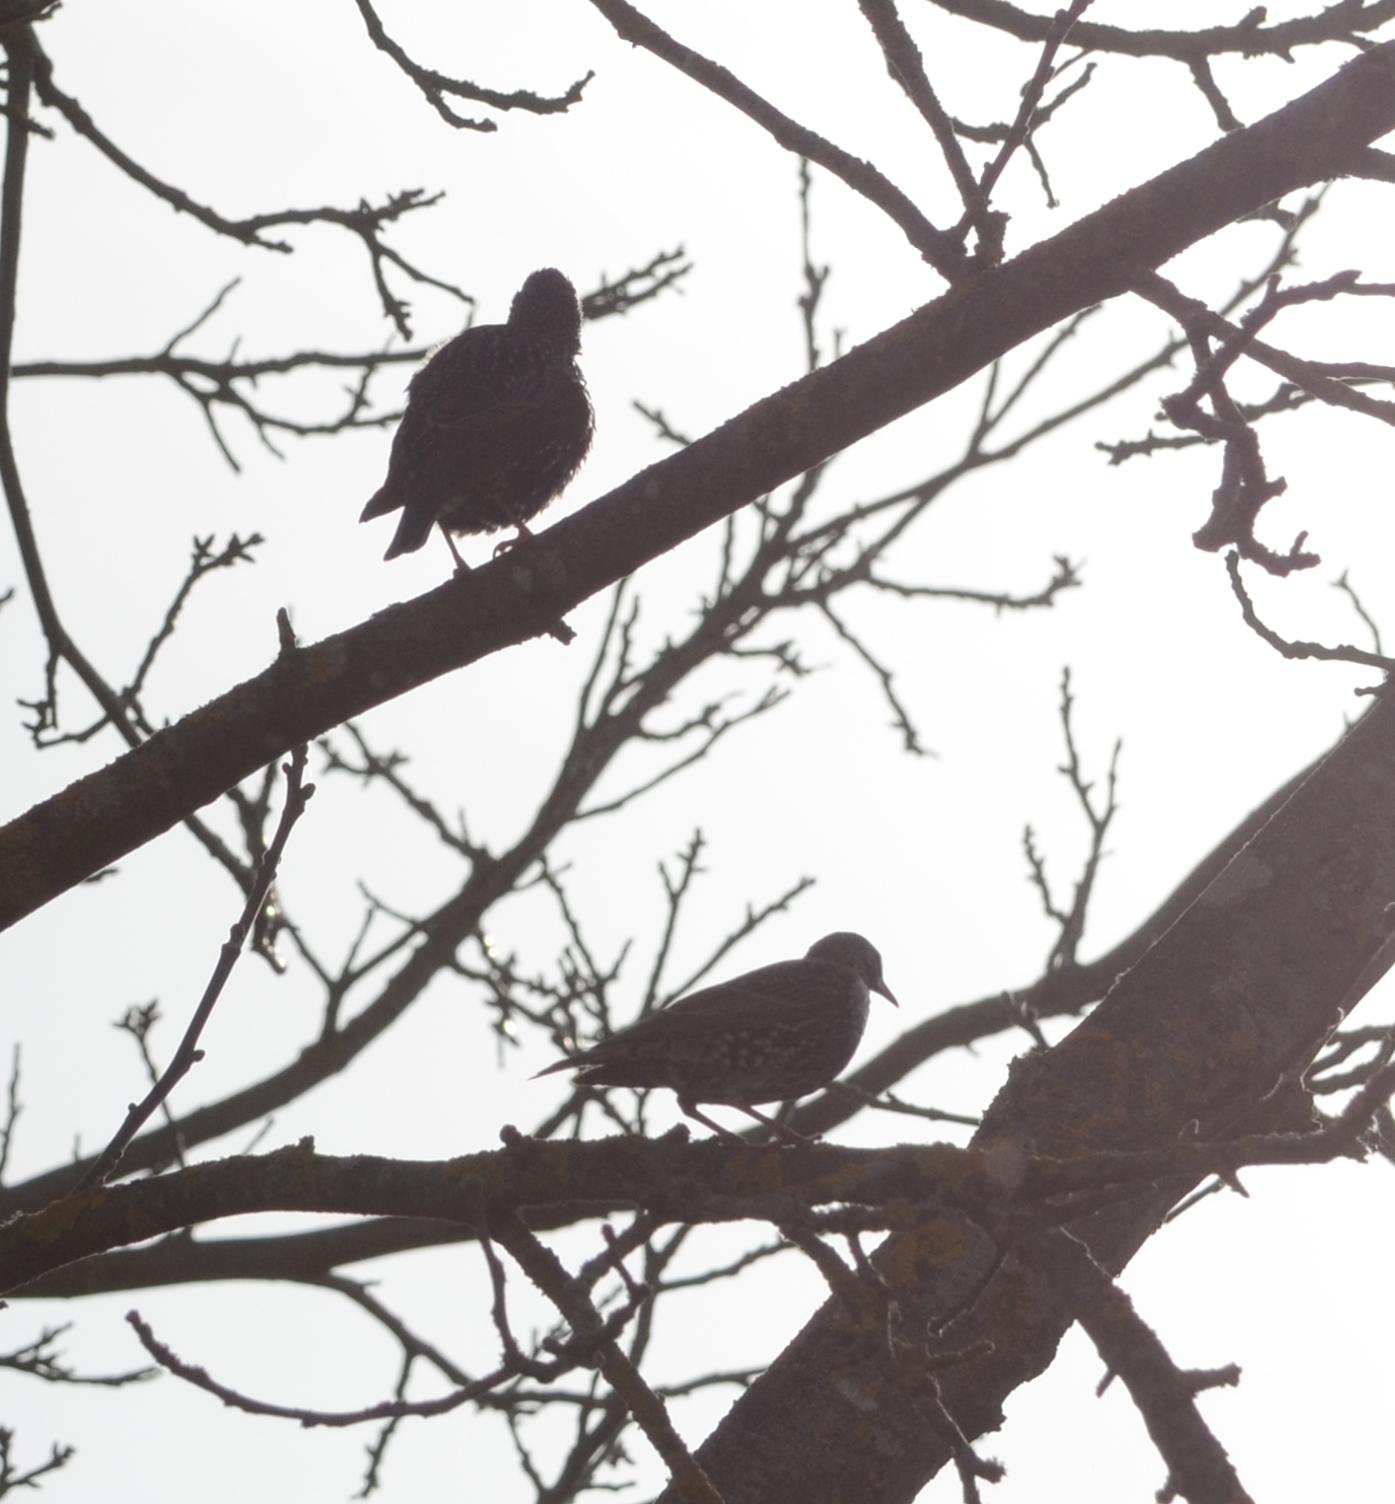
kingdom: Animalia
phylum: Chordata
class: Aves
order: Passeriformes
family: Sturnidae
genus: Sturnus
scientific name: Sturnus vulgaris
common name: Common starling
